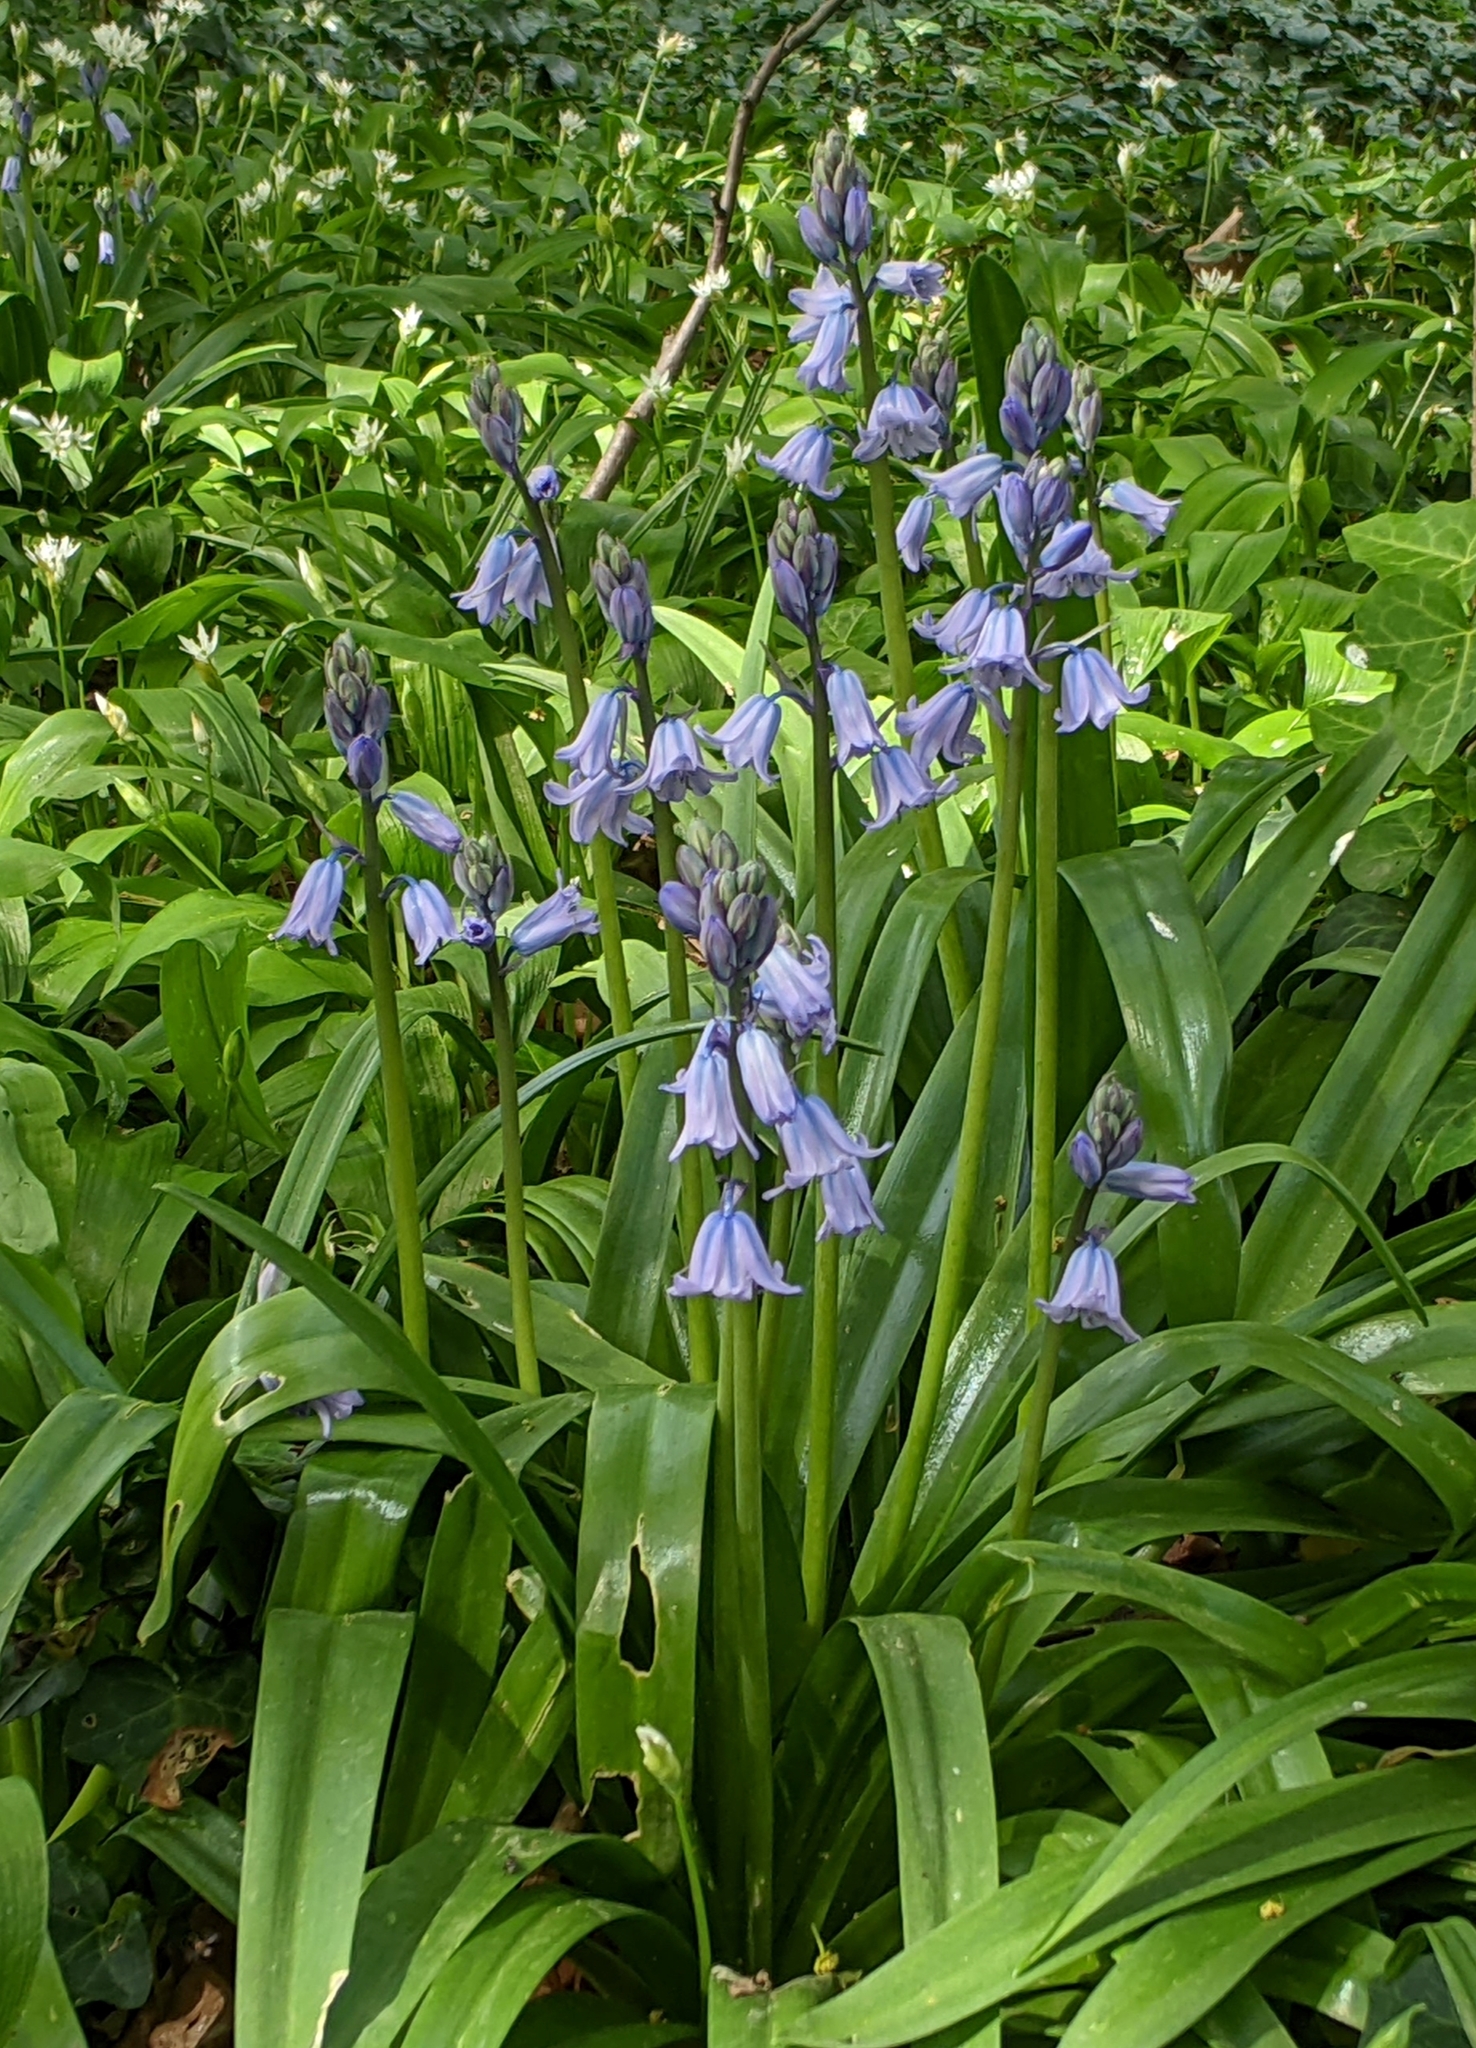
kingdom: Plantae
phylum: Tracheophyta
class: Liliopsida
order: Asparagales
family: Asparagaceae
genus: Hyacinthoides
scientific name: Hyacinthoides hispanica
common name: Spanish bluebell
